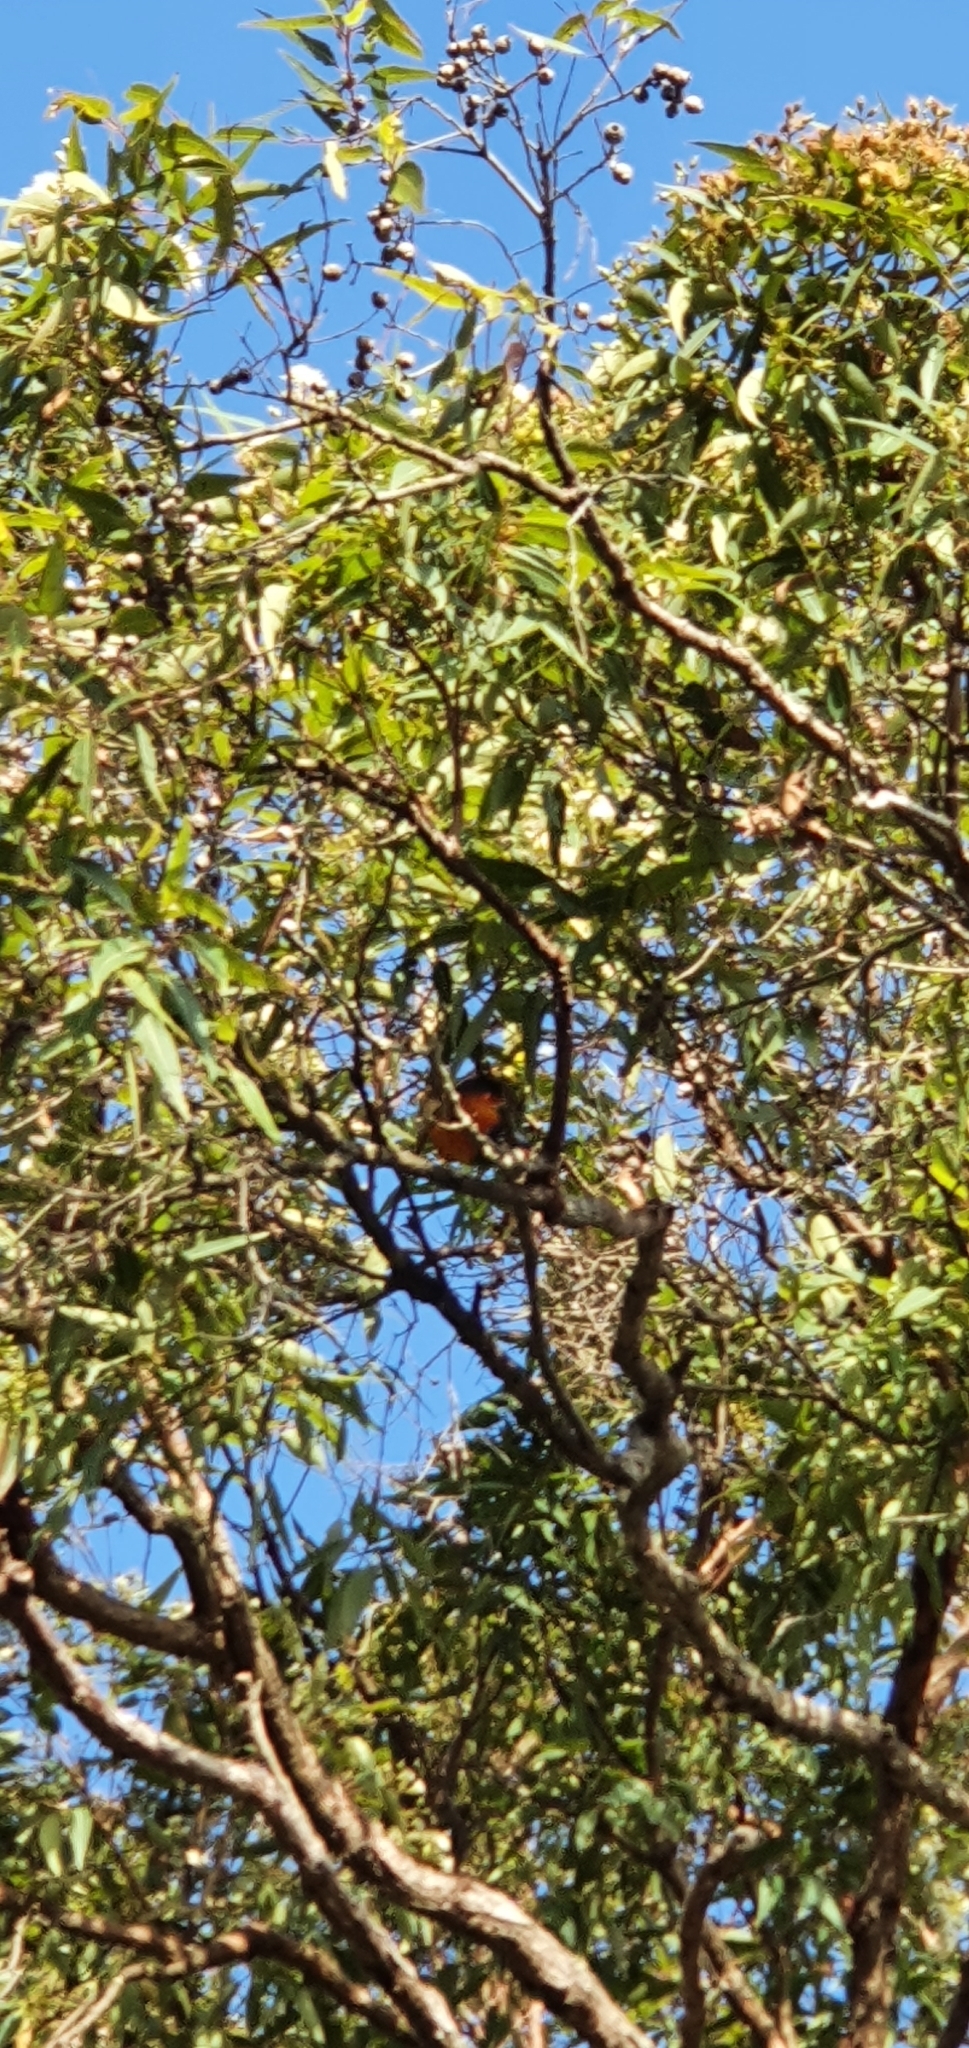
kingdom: Animalia
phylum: Chordata
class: Aves
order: Psittaciformes
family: Psittacidae
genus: Trichoglossus
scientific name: Trichoglossus haematodus
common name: Coconut lorikeet
